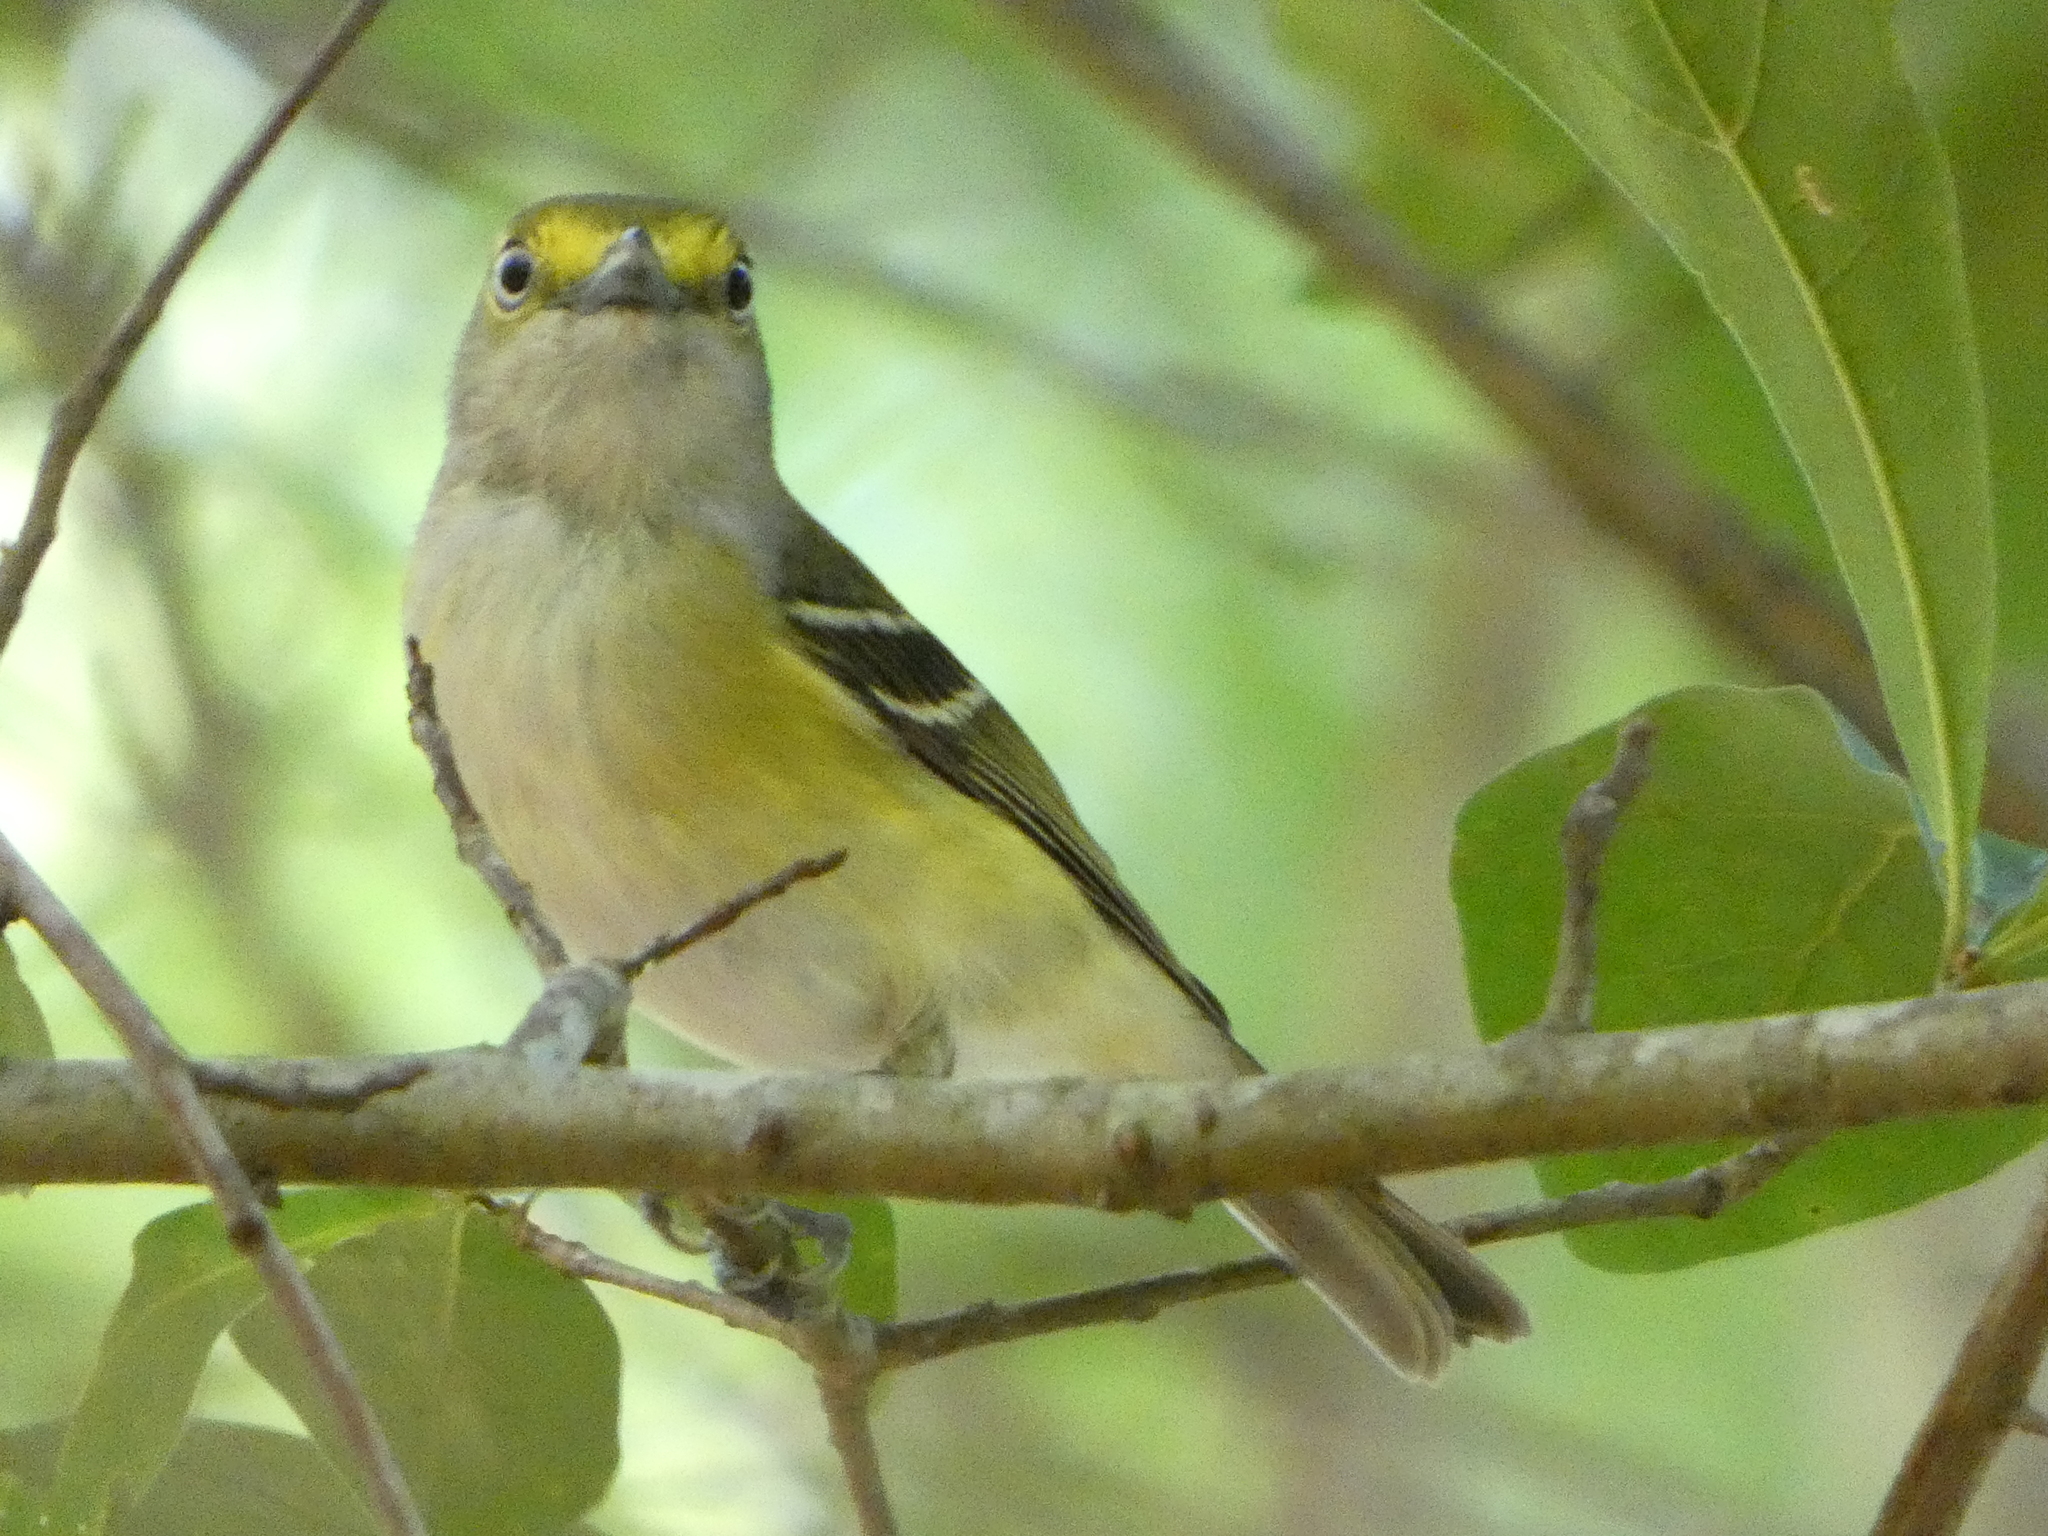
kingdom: Animalia
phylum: Chordata
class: Aves
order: Passeriformes
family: Vireonidae
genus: Vireo
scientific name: Vireo griseus
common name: White-eyed vireo
